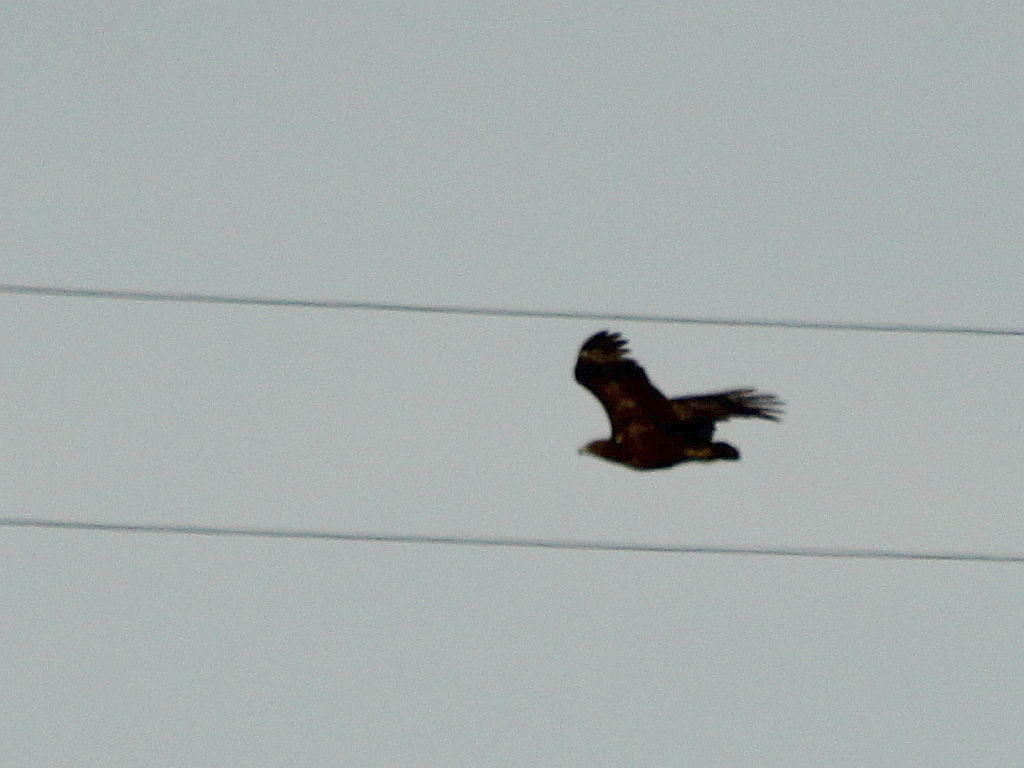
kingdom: Animalia
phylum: Chordata
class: Aves
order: Accipitriformes
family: Accipitridae
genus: Aquila
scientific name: Aquila clanga
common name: Greater spotted eagle
